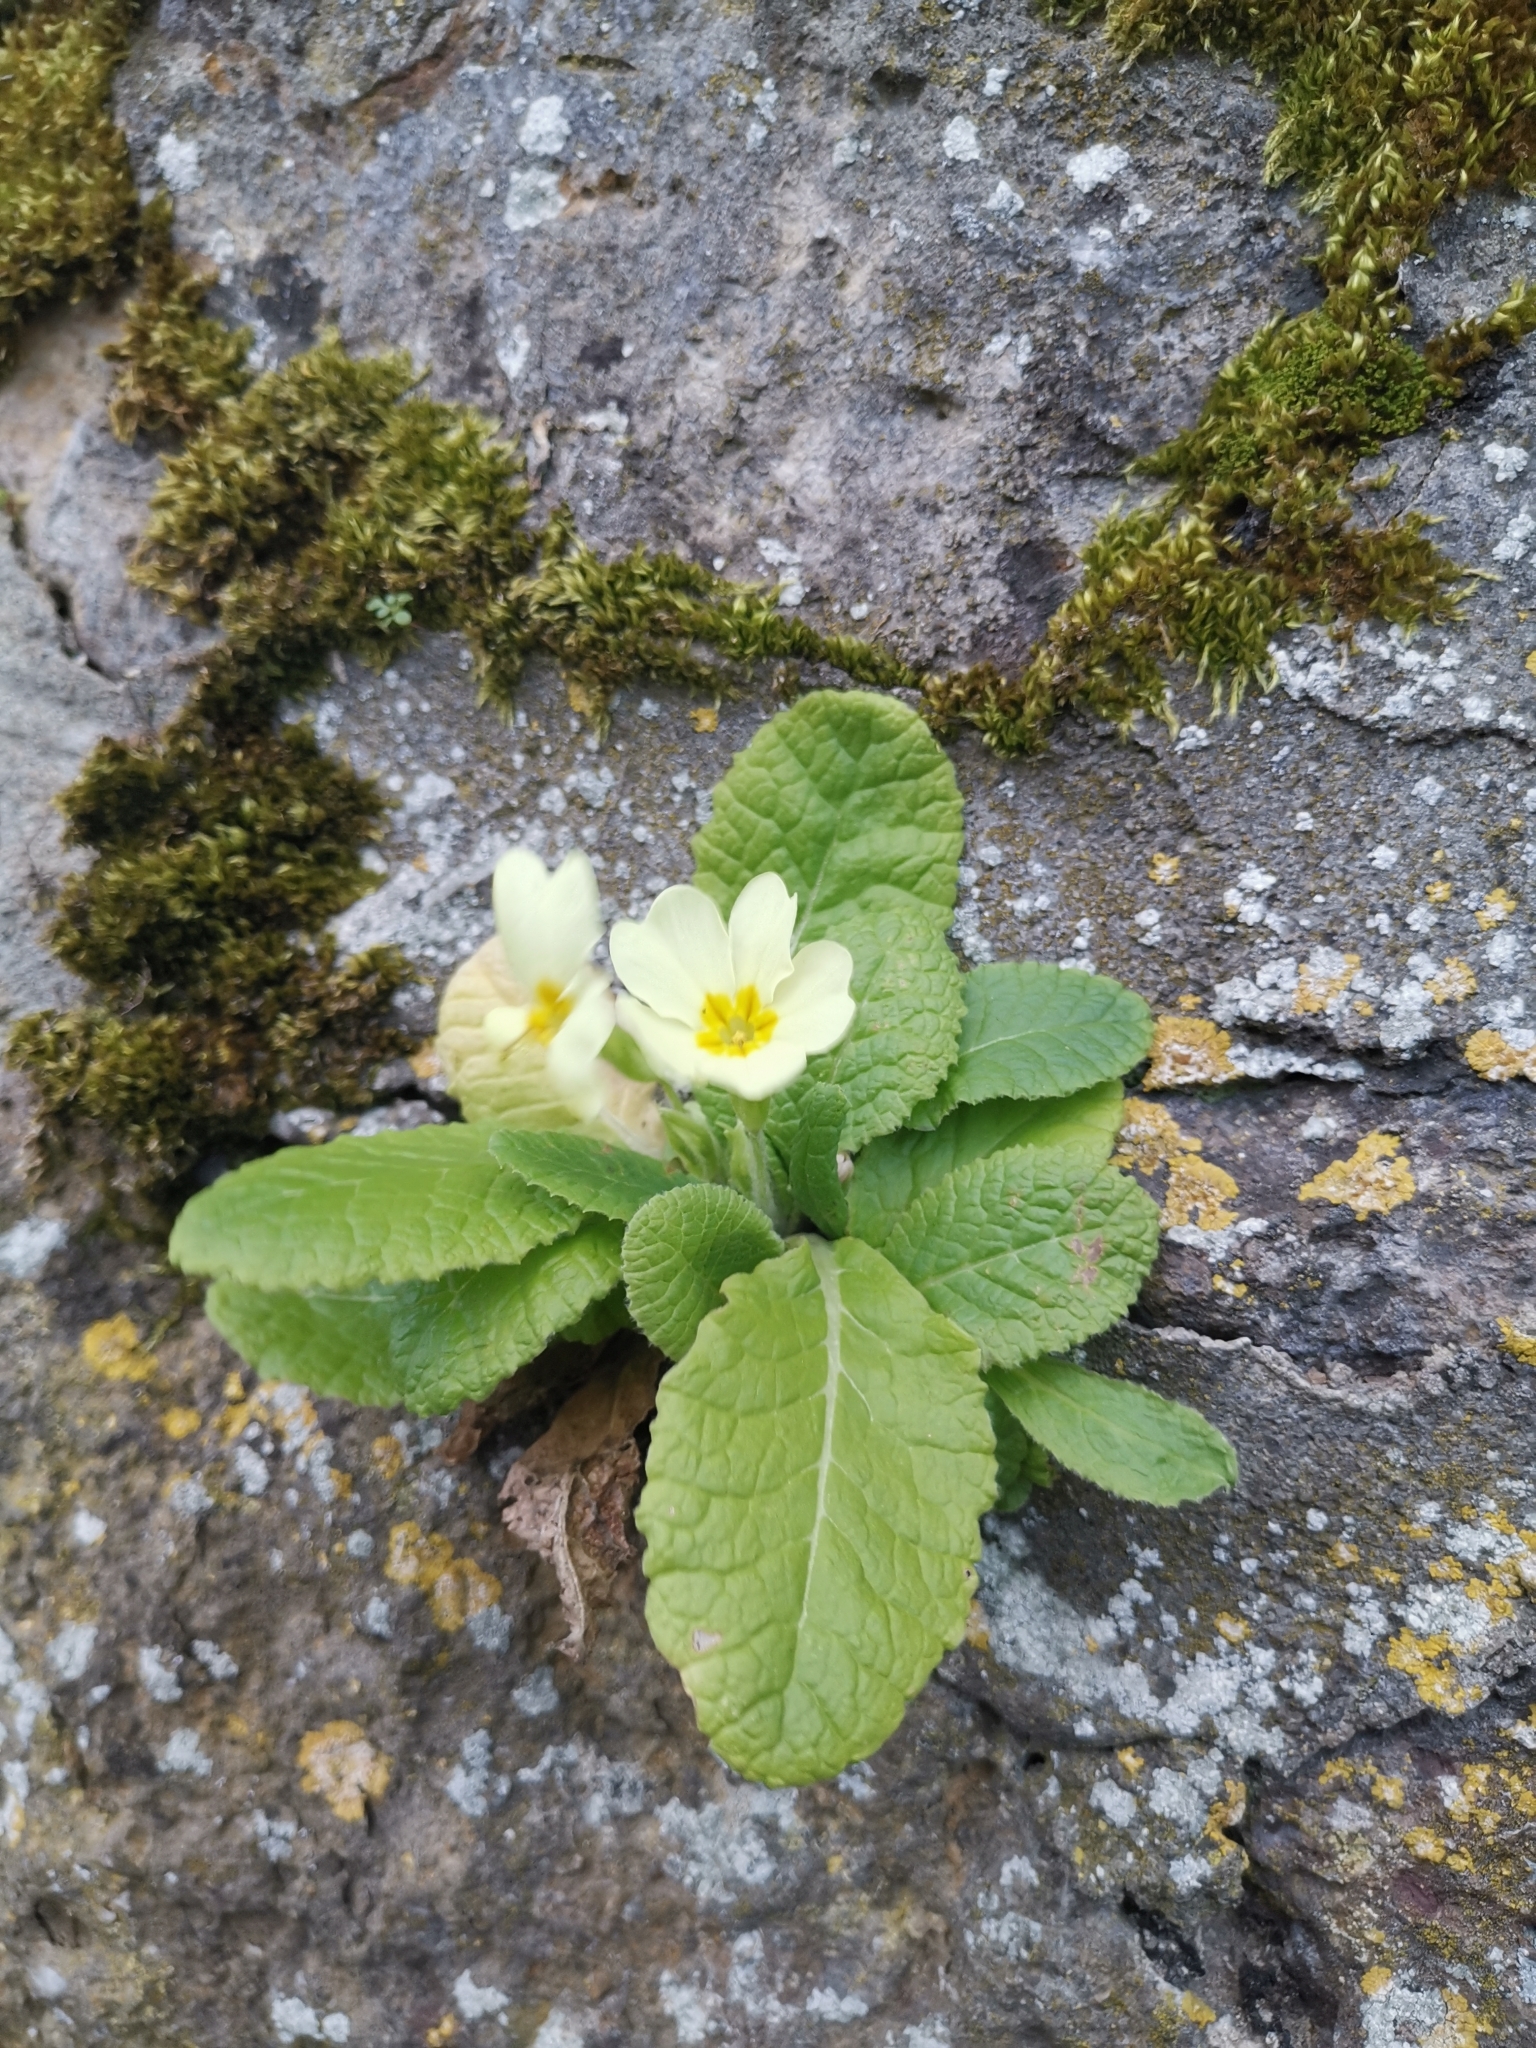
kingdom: Plantae
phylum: Tracheophyta
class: Magnoliopsida
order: Ericales
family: Primulaceae
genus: Primula
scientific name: Primula vulgaris
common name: Primrose
